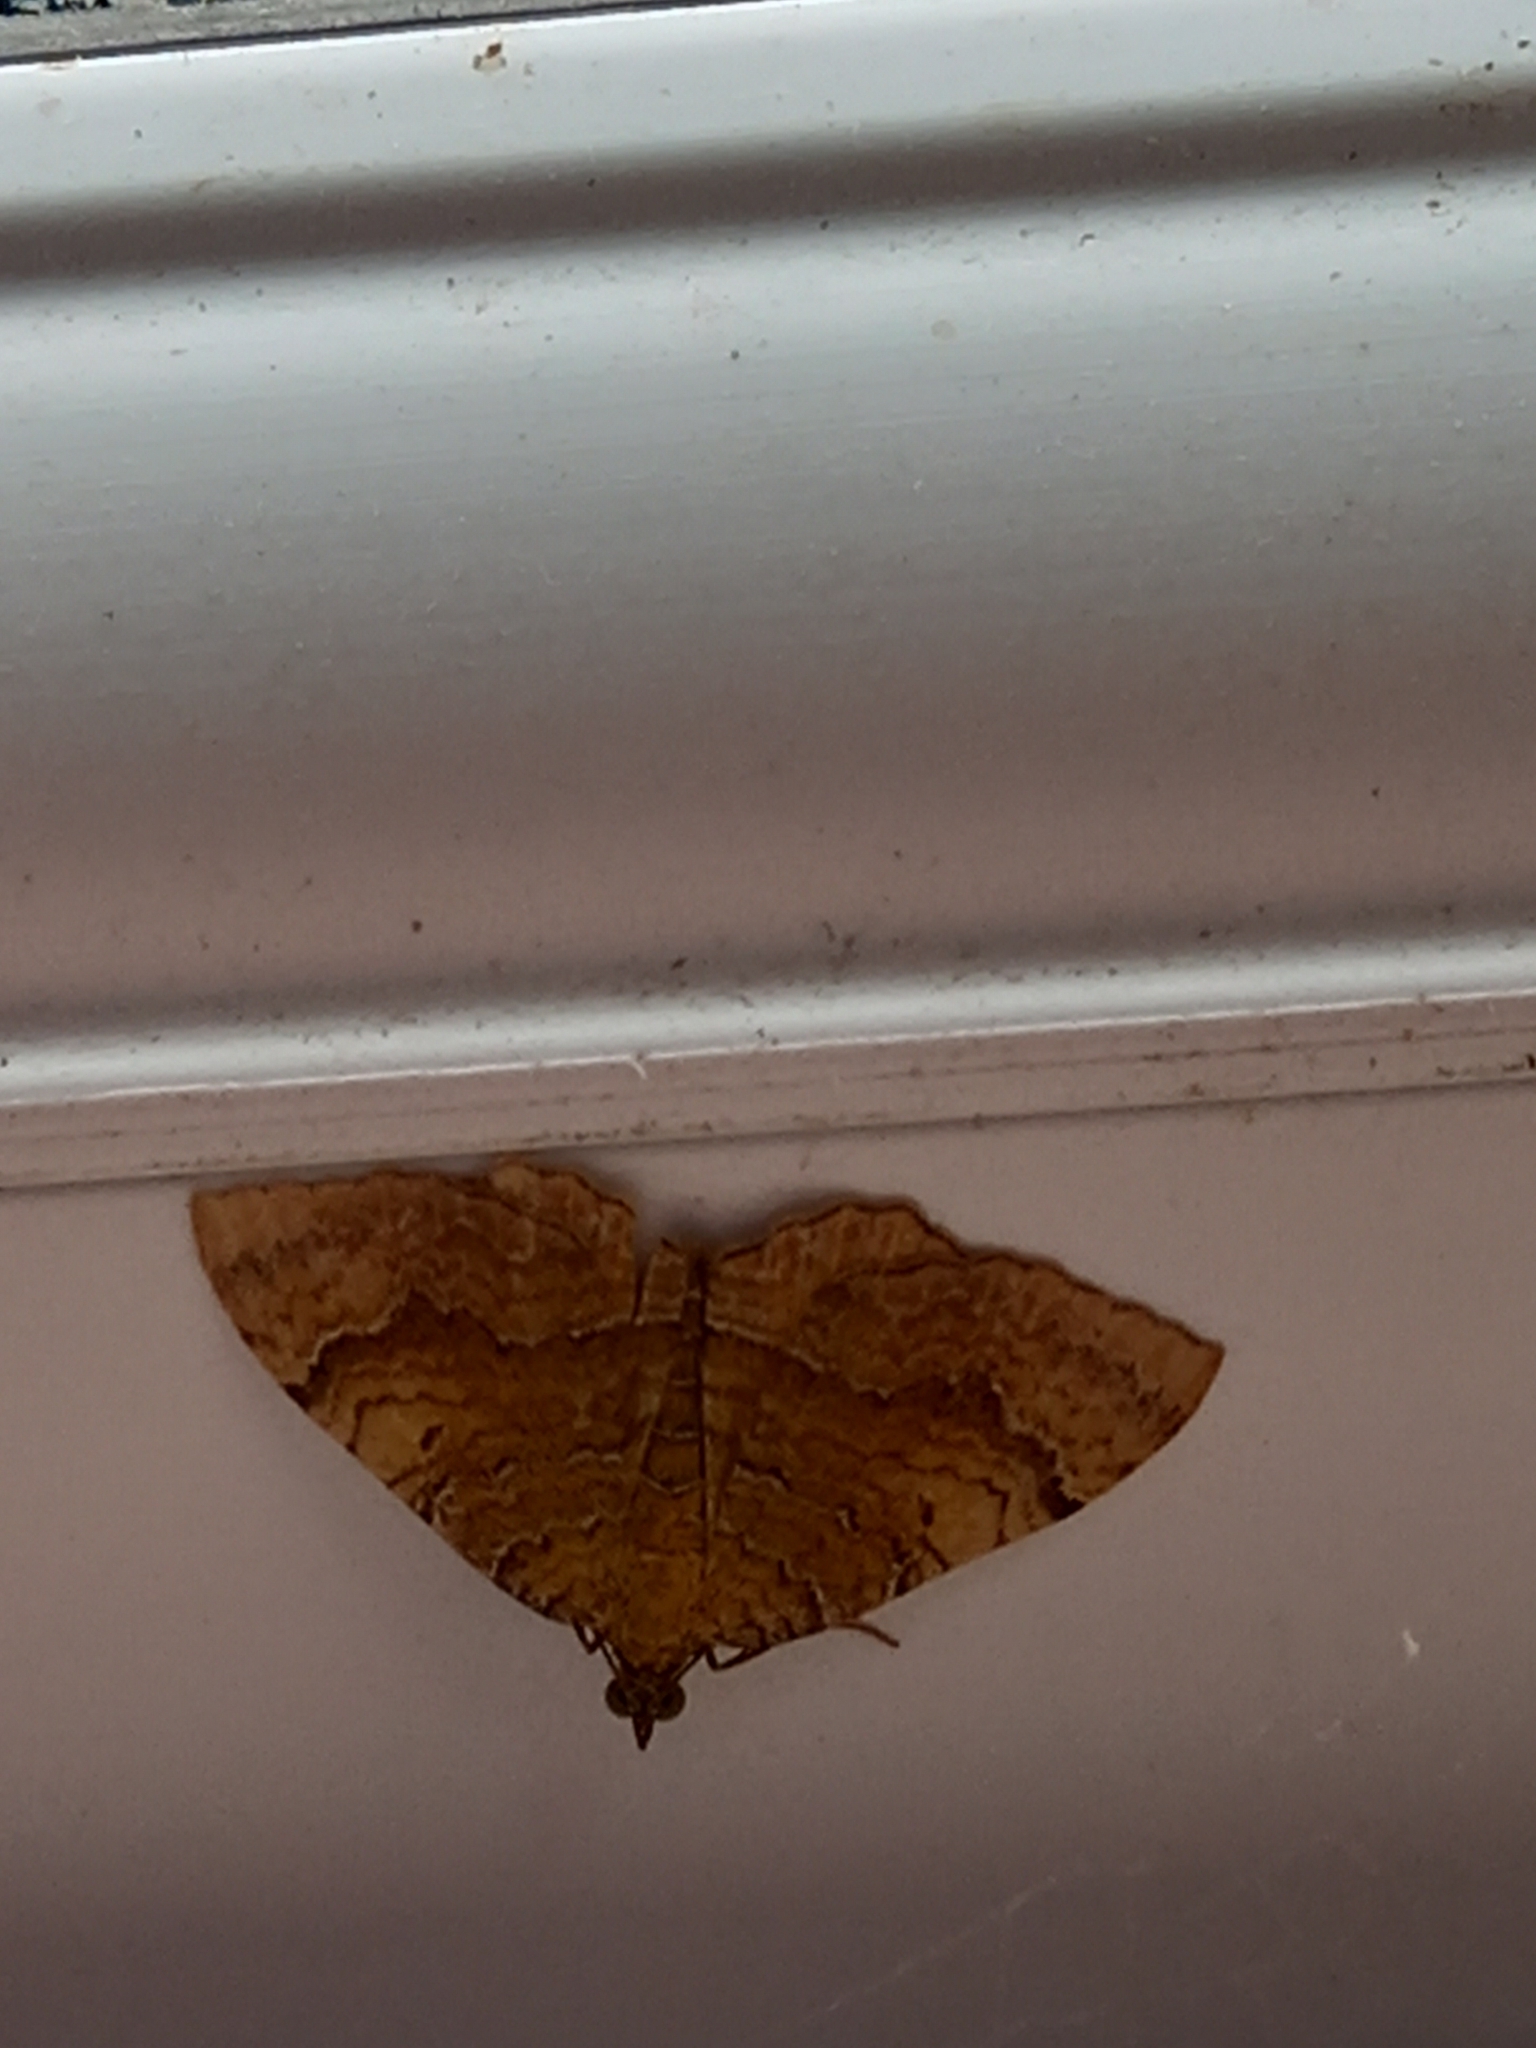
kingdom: Animalia
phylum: Arthropoda
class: Insecta
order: Lepidoptera
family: Geometridae
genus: Camptogramma
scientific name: Camptogramma bilineata
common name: Yellow shell
